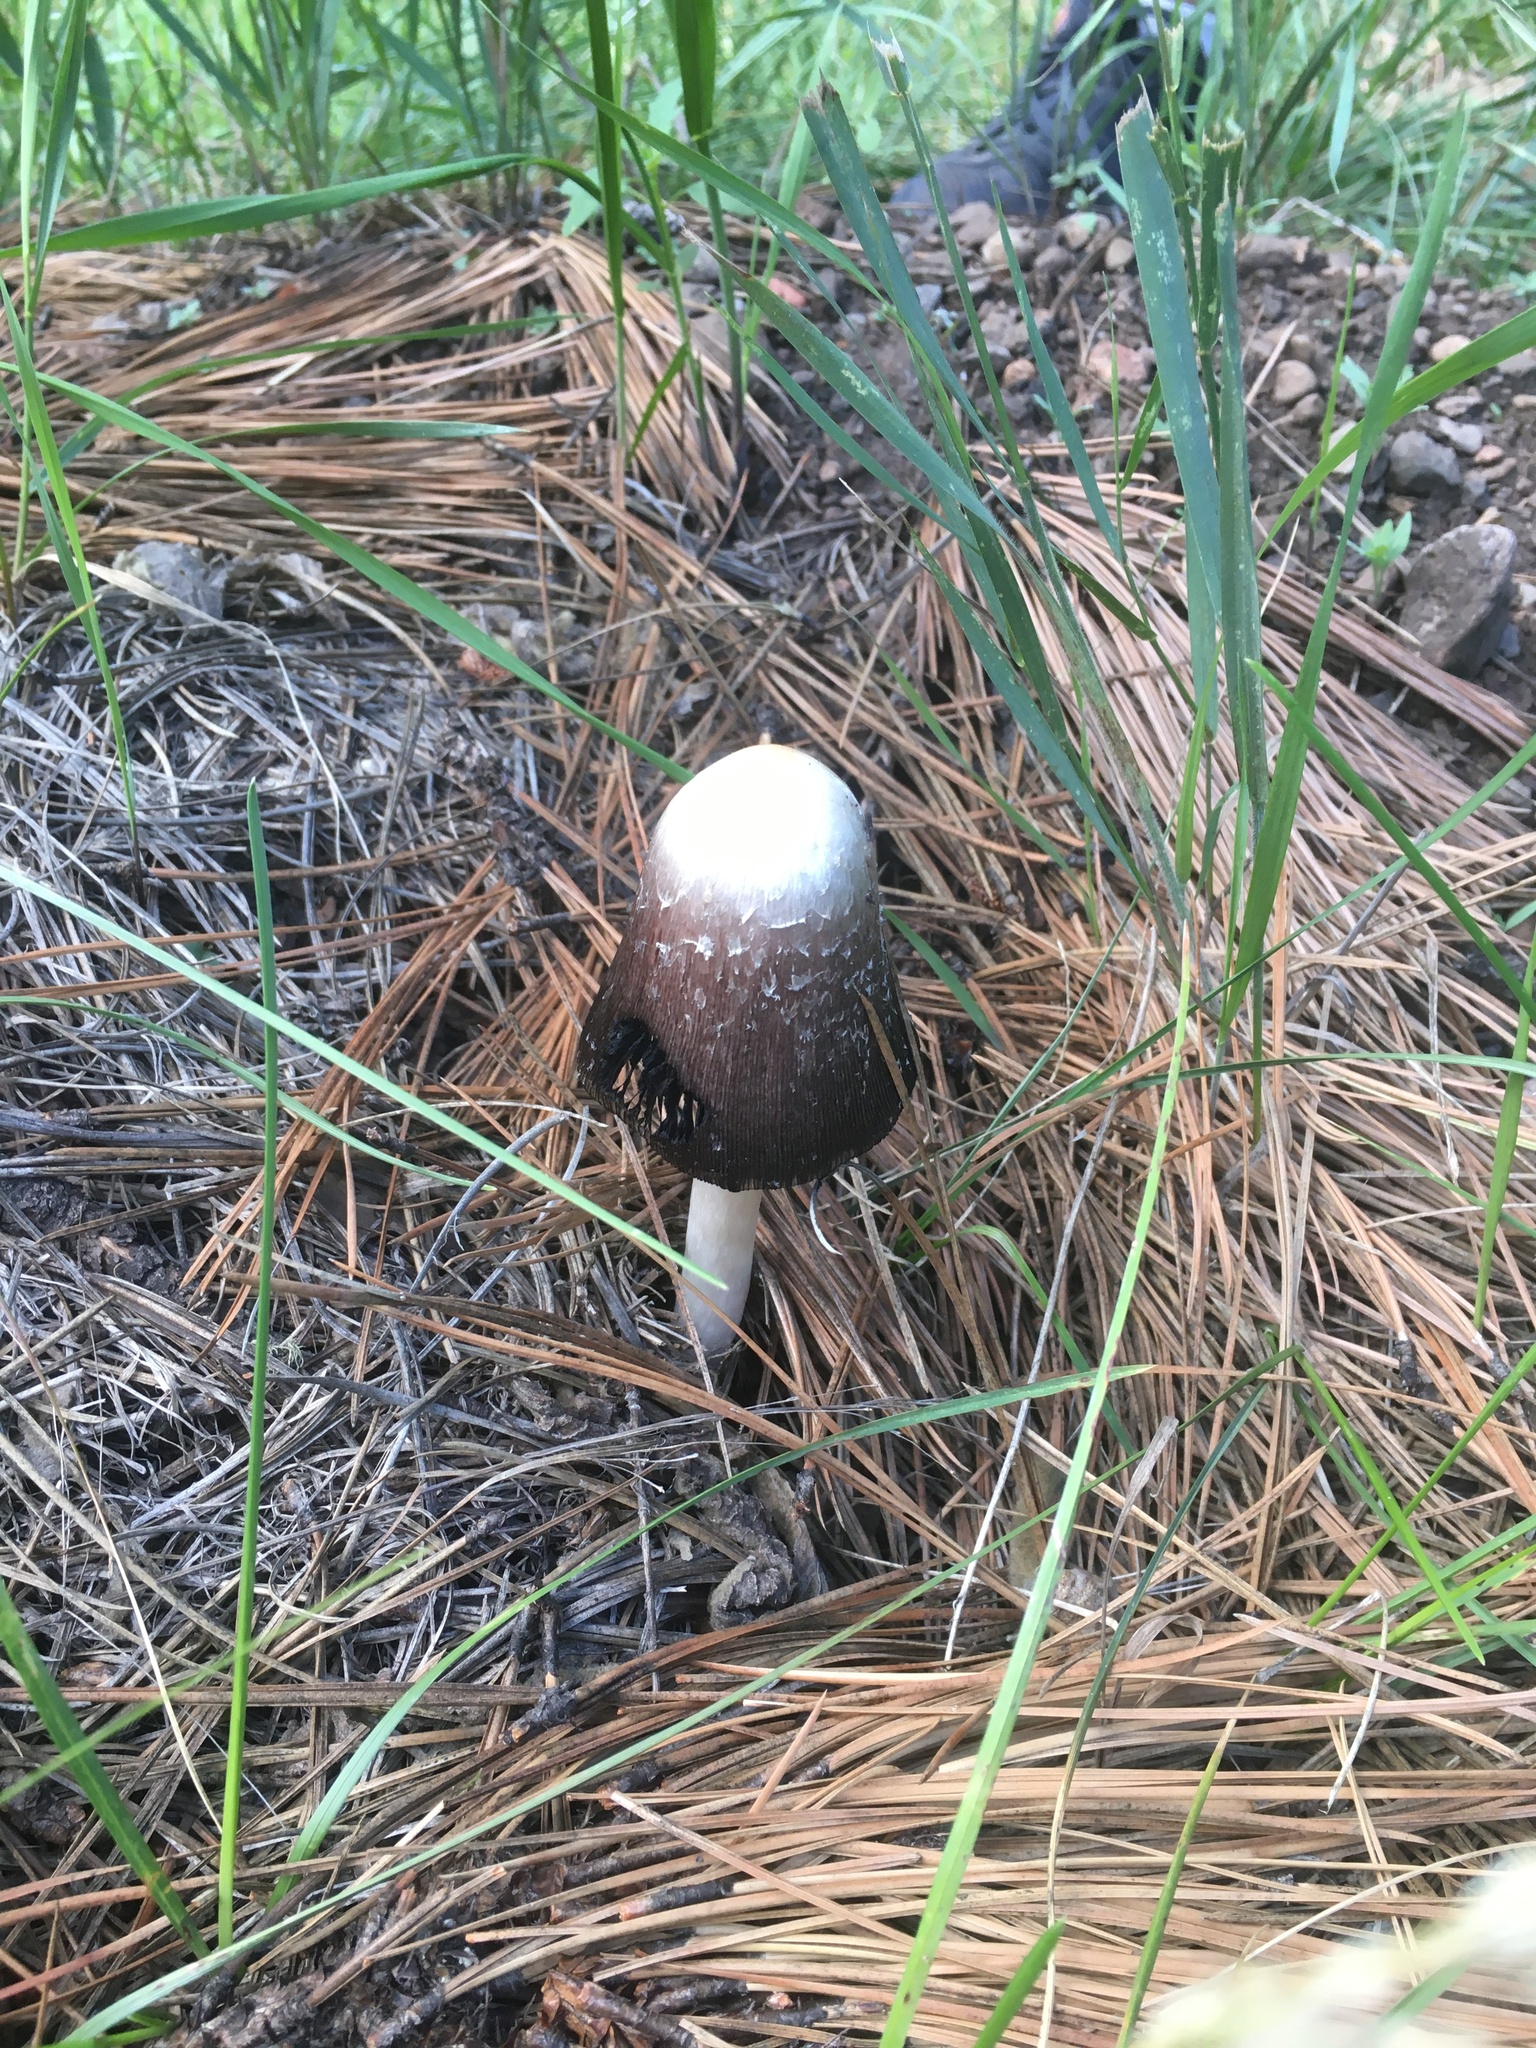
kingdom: Fungi
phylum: Basidiomycota
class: Agaricomycetes
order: Agaricales
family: Agaricaceae
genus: Coprinus
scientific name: Coprinus comatus
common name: Lawyer's wig
